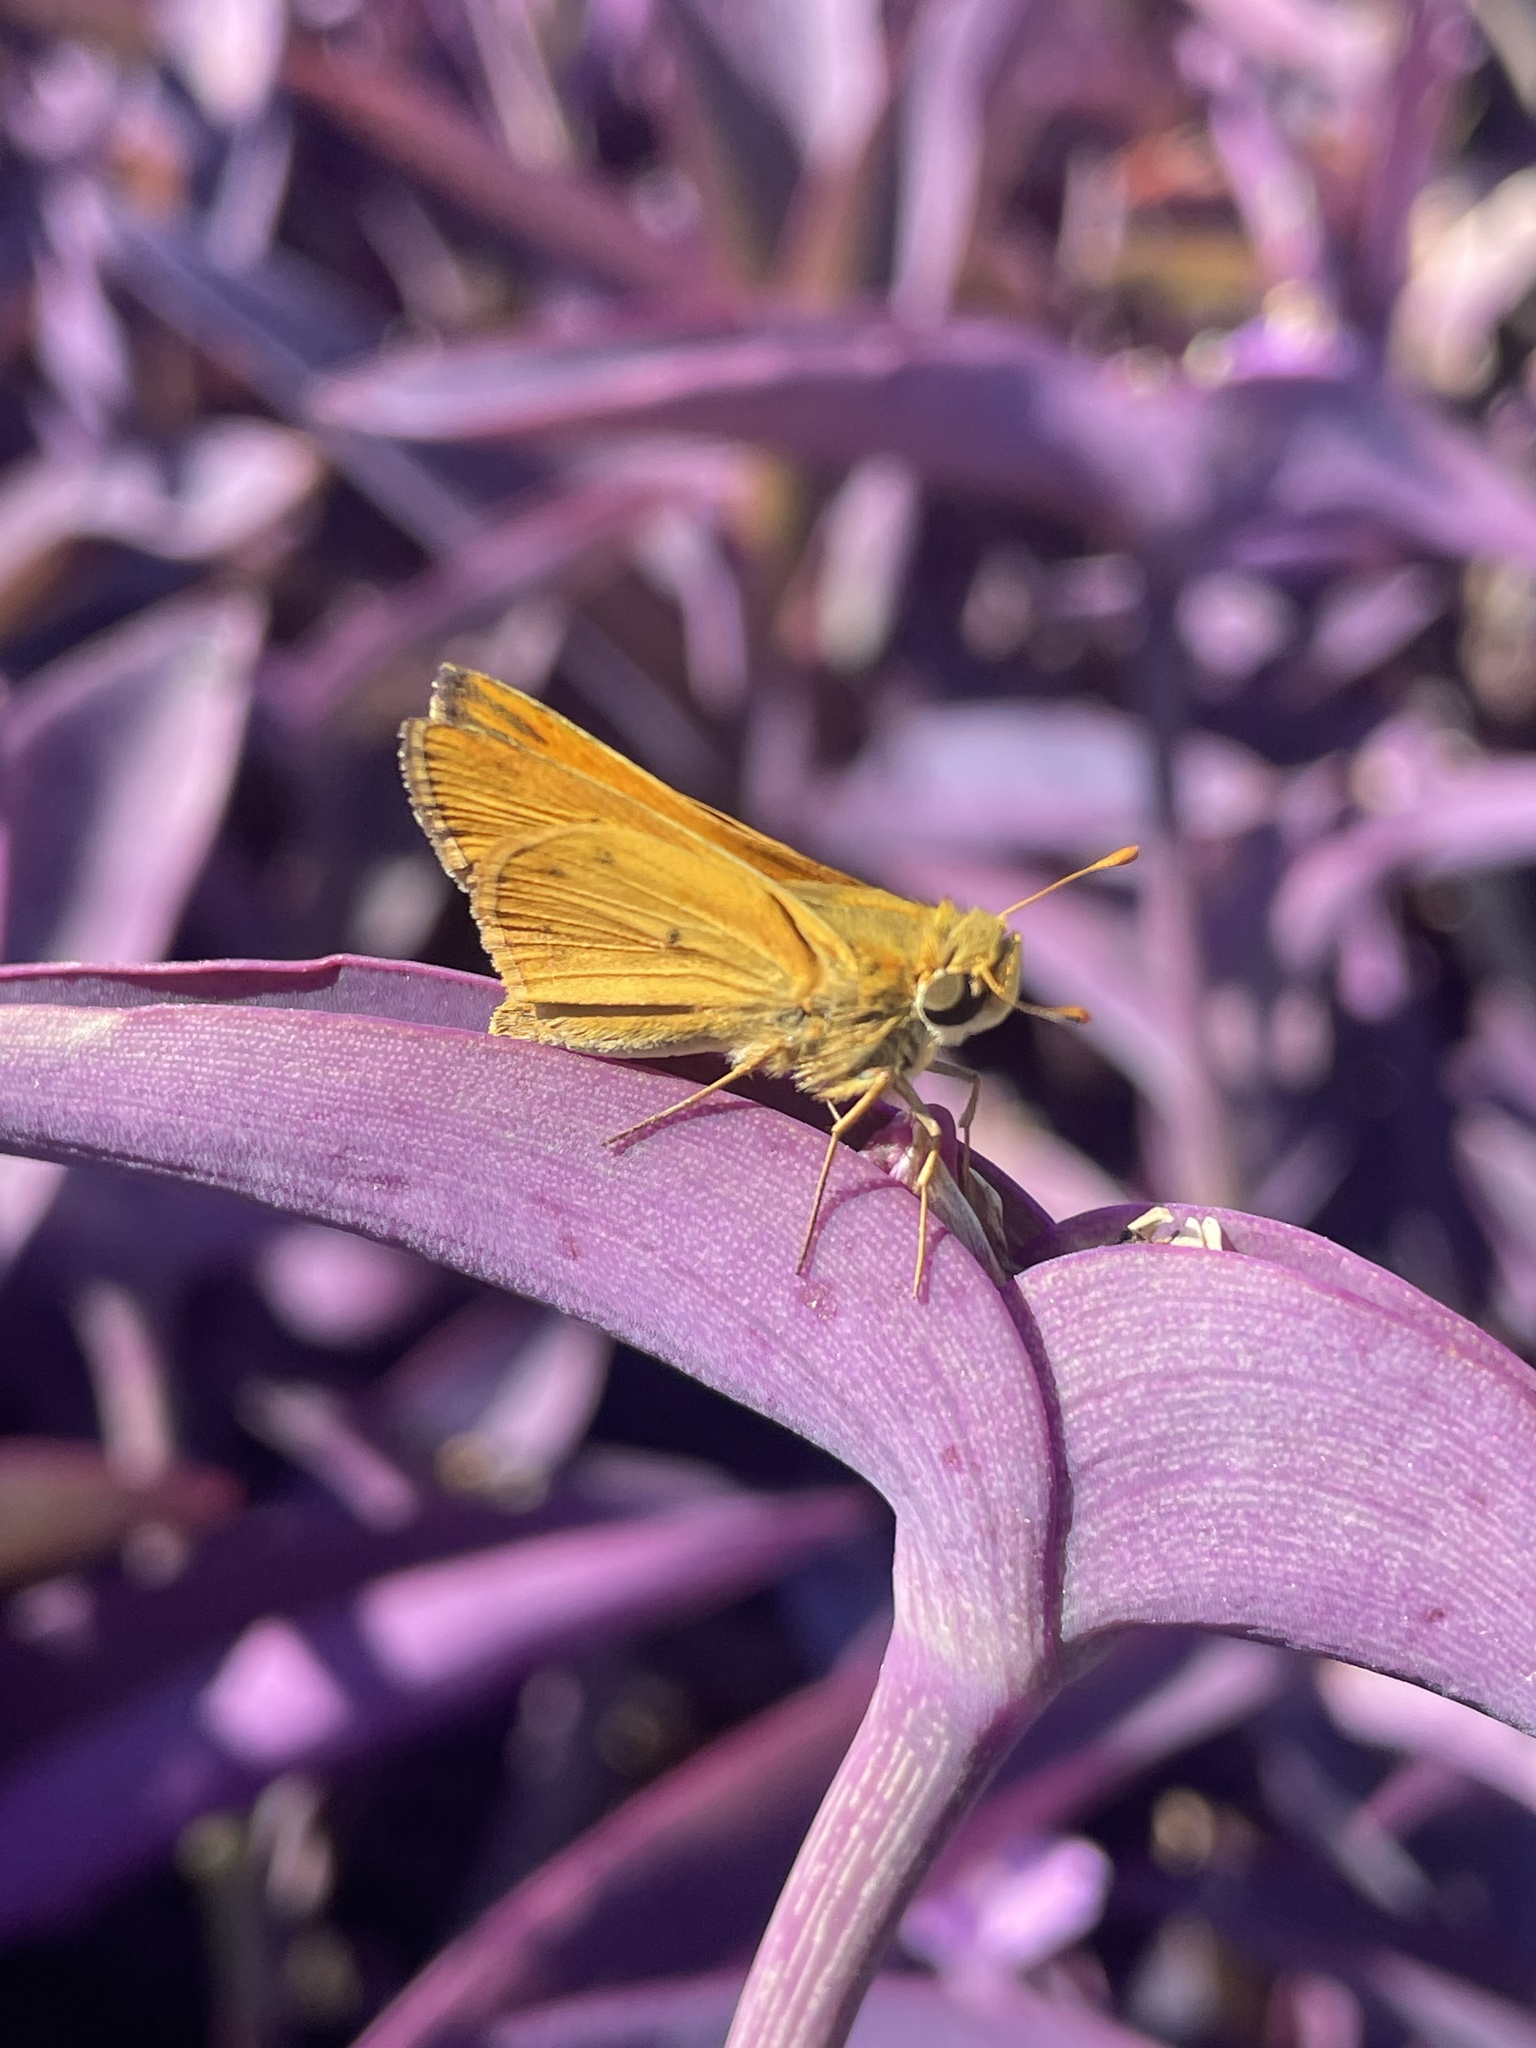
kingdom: Animalia
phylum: Arthropoda
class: Insecta
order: Lepidoptera
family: Hesperiidae
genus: Hylephila
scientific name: Hylephila phyleus
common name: Fiery skipper
